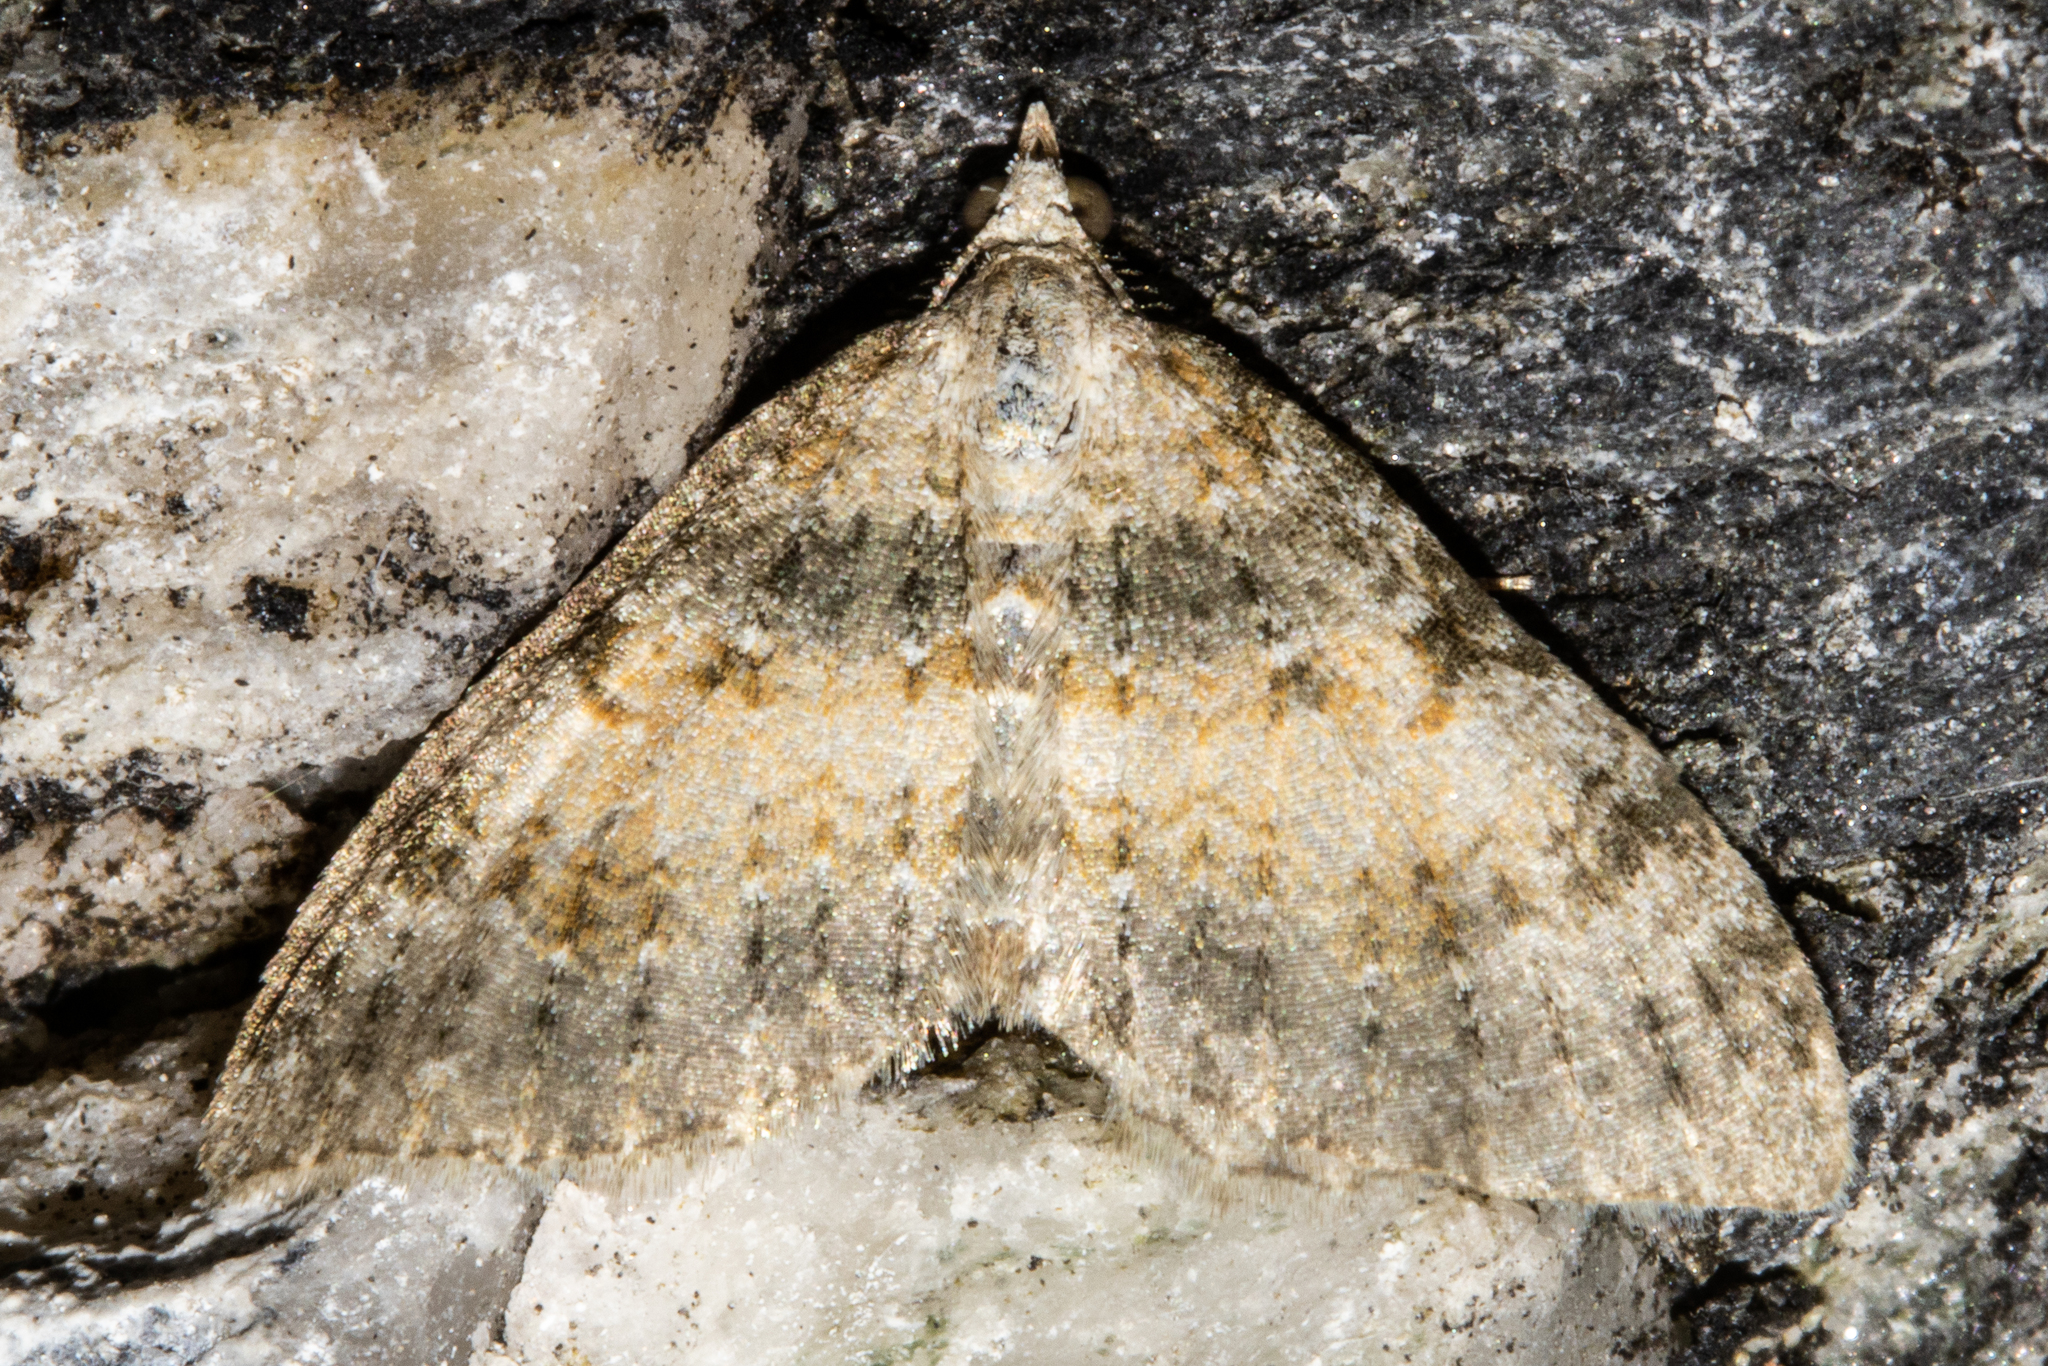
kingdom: Animalia
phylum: Arthropoda
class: Insecta
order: Lepidoptera
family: Geometridae
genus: Helastia
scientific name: Helastia plumbea
